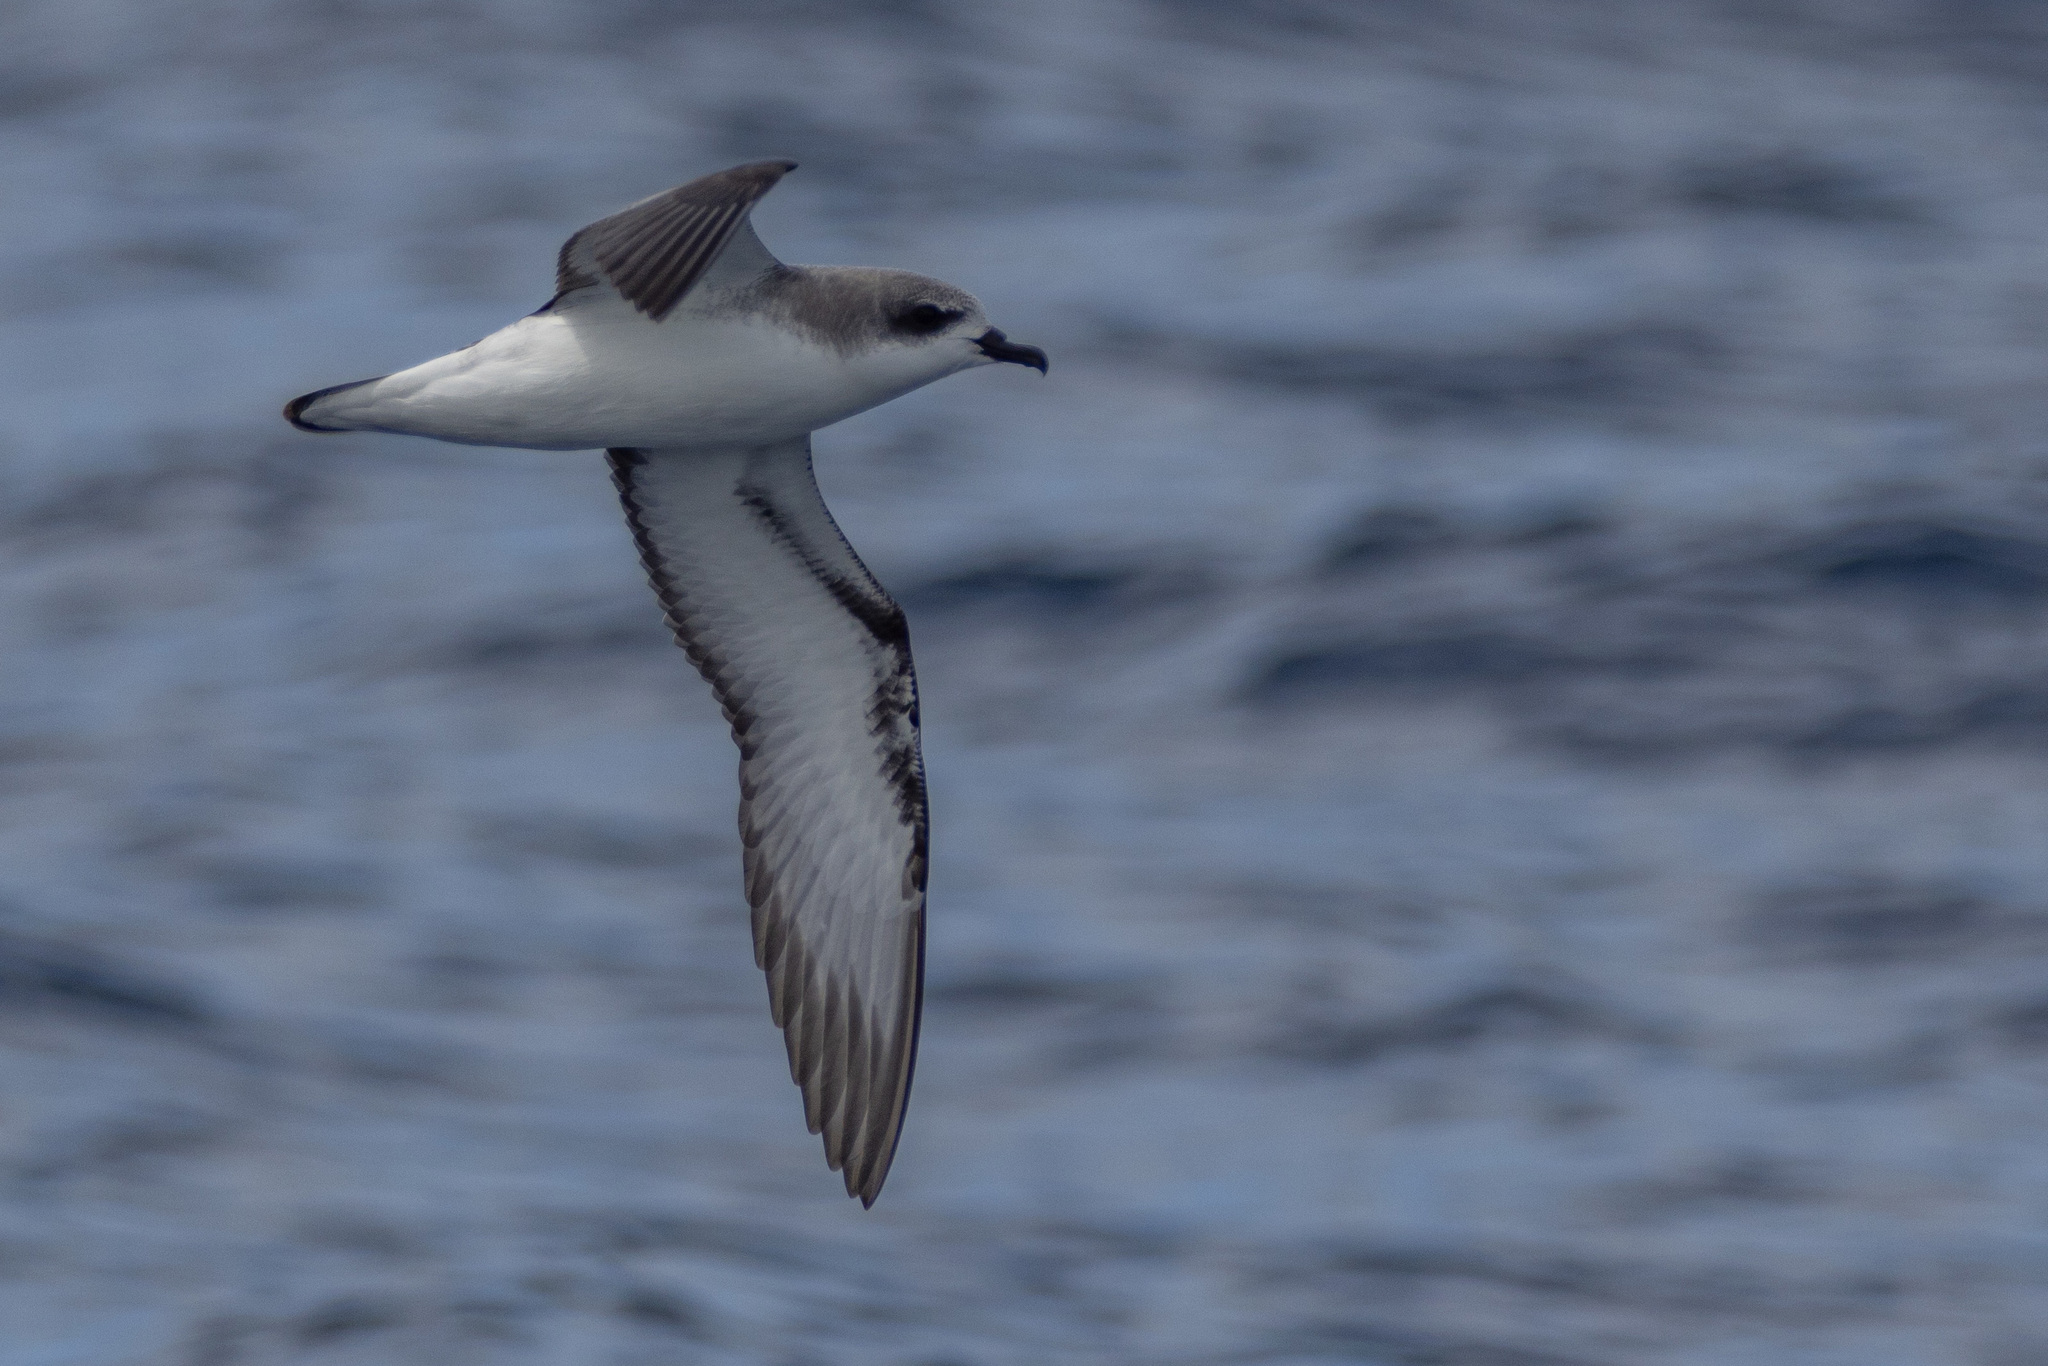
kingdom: Animalia
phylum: Chordata
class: Aves
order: Procellariiformes
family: Procellariidae
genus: Pterodroma
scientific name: Pterodroma cookii
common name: Cook's petrel
